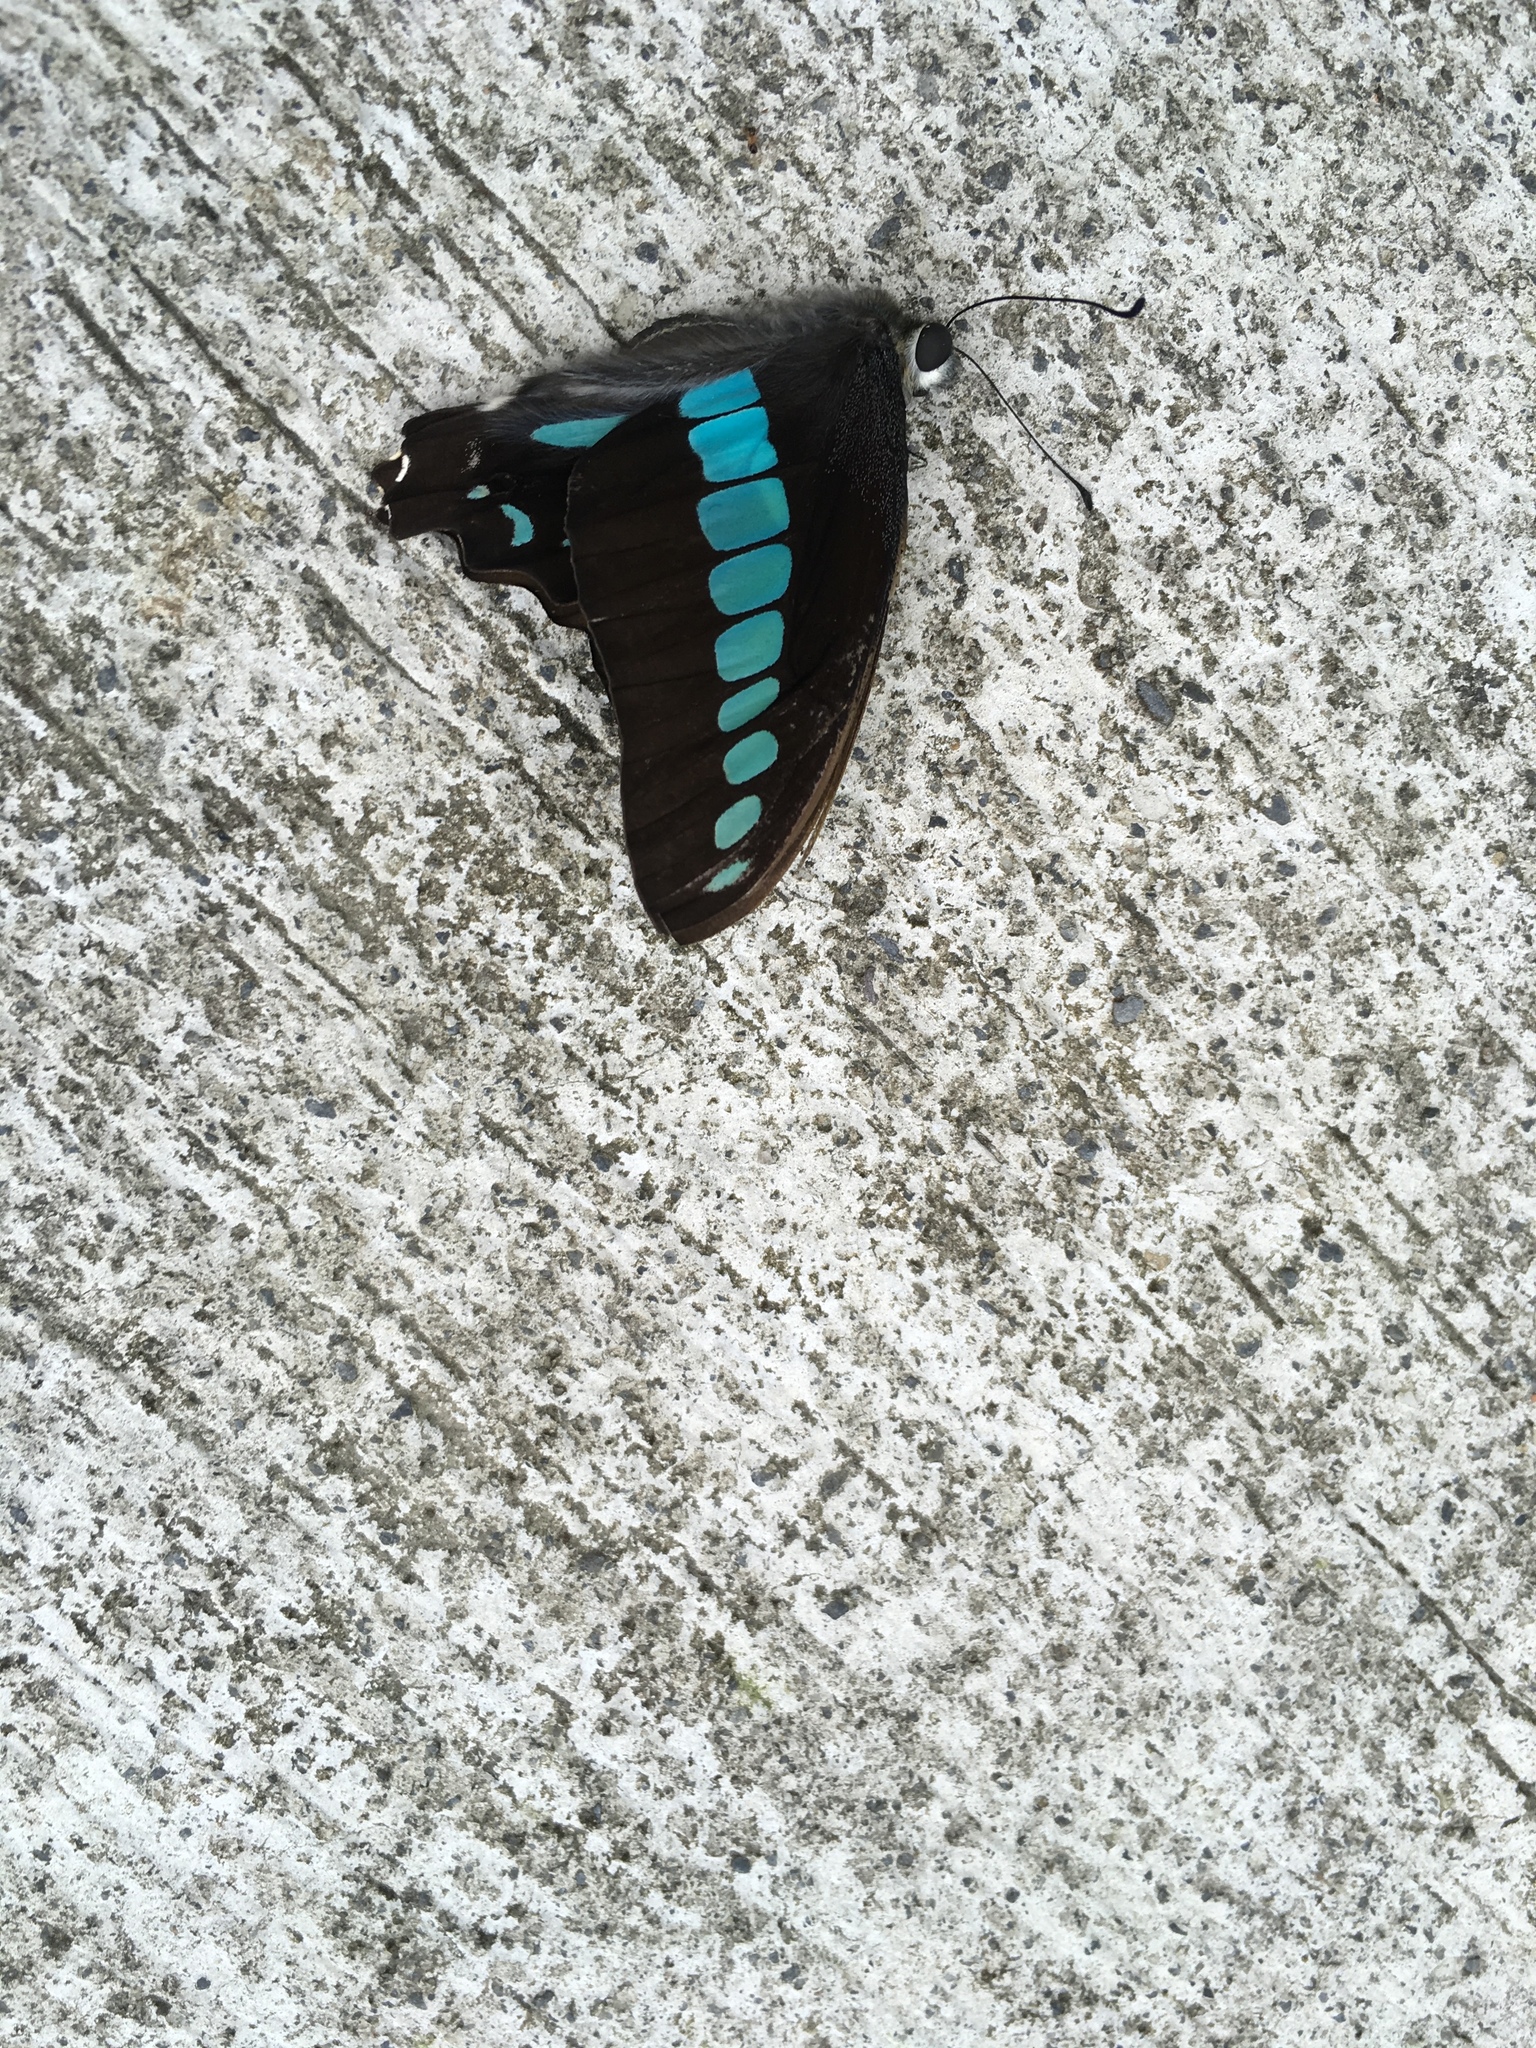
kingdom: Fungi
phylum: Ascomycota
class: Sordariomycetes
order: Microascales
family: Microascaceae
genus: Graphium
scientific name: Graphium sarpedon
